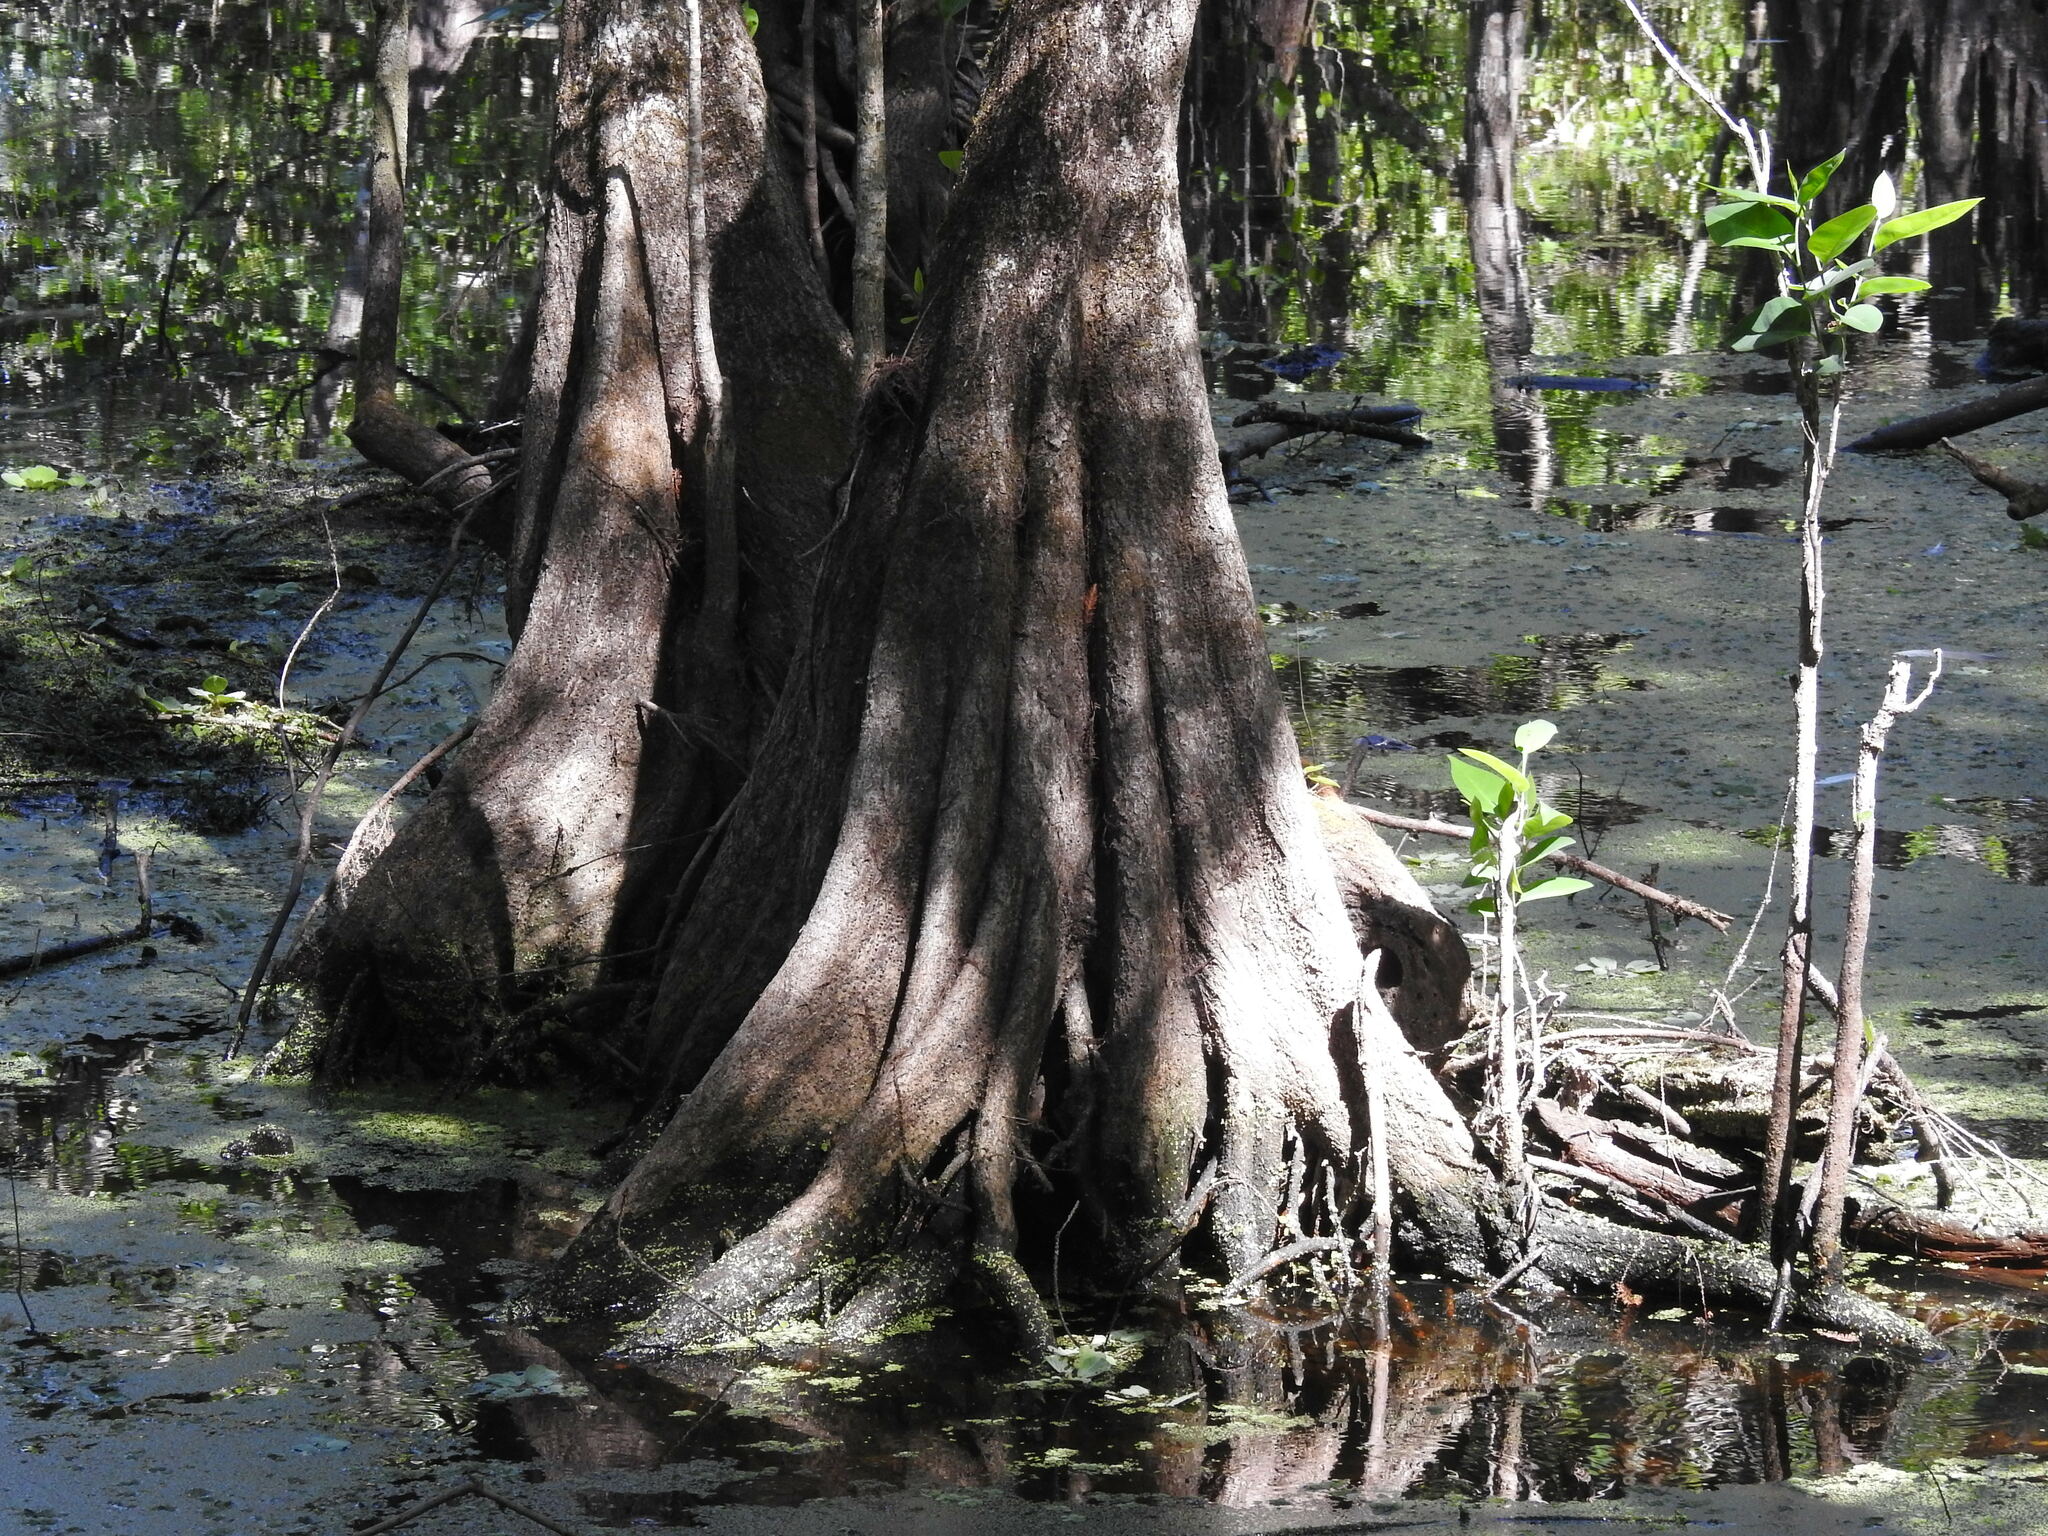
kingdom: Plantae
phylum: Tracheophyta
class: Magnoliopsida
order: Magnoliales
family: Annonaceae
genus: Annona
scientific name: Annona glabra
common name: Monkey apple
